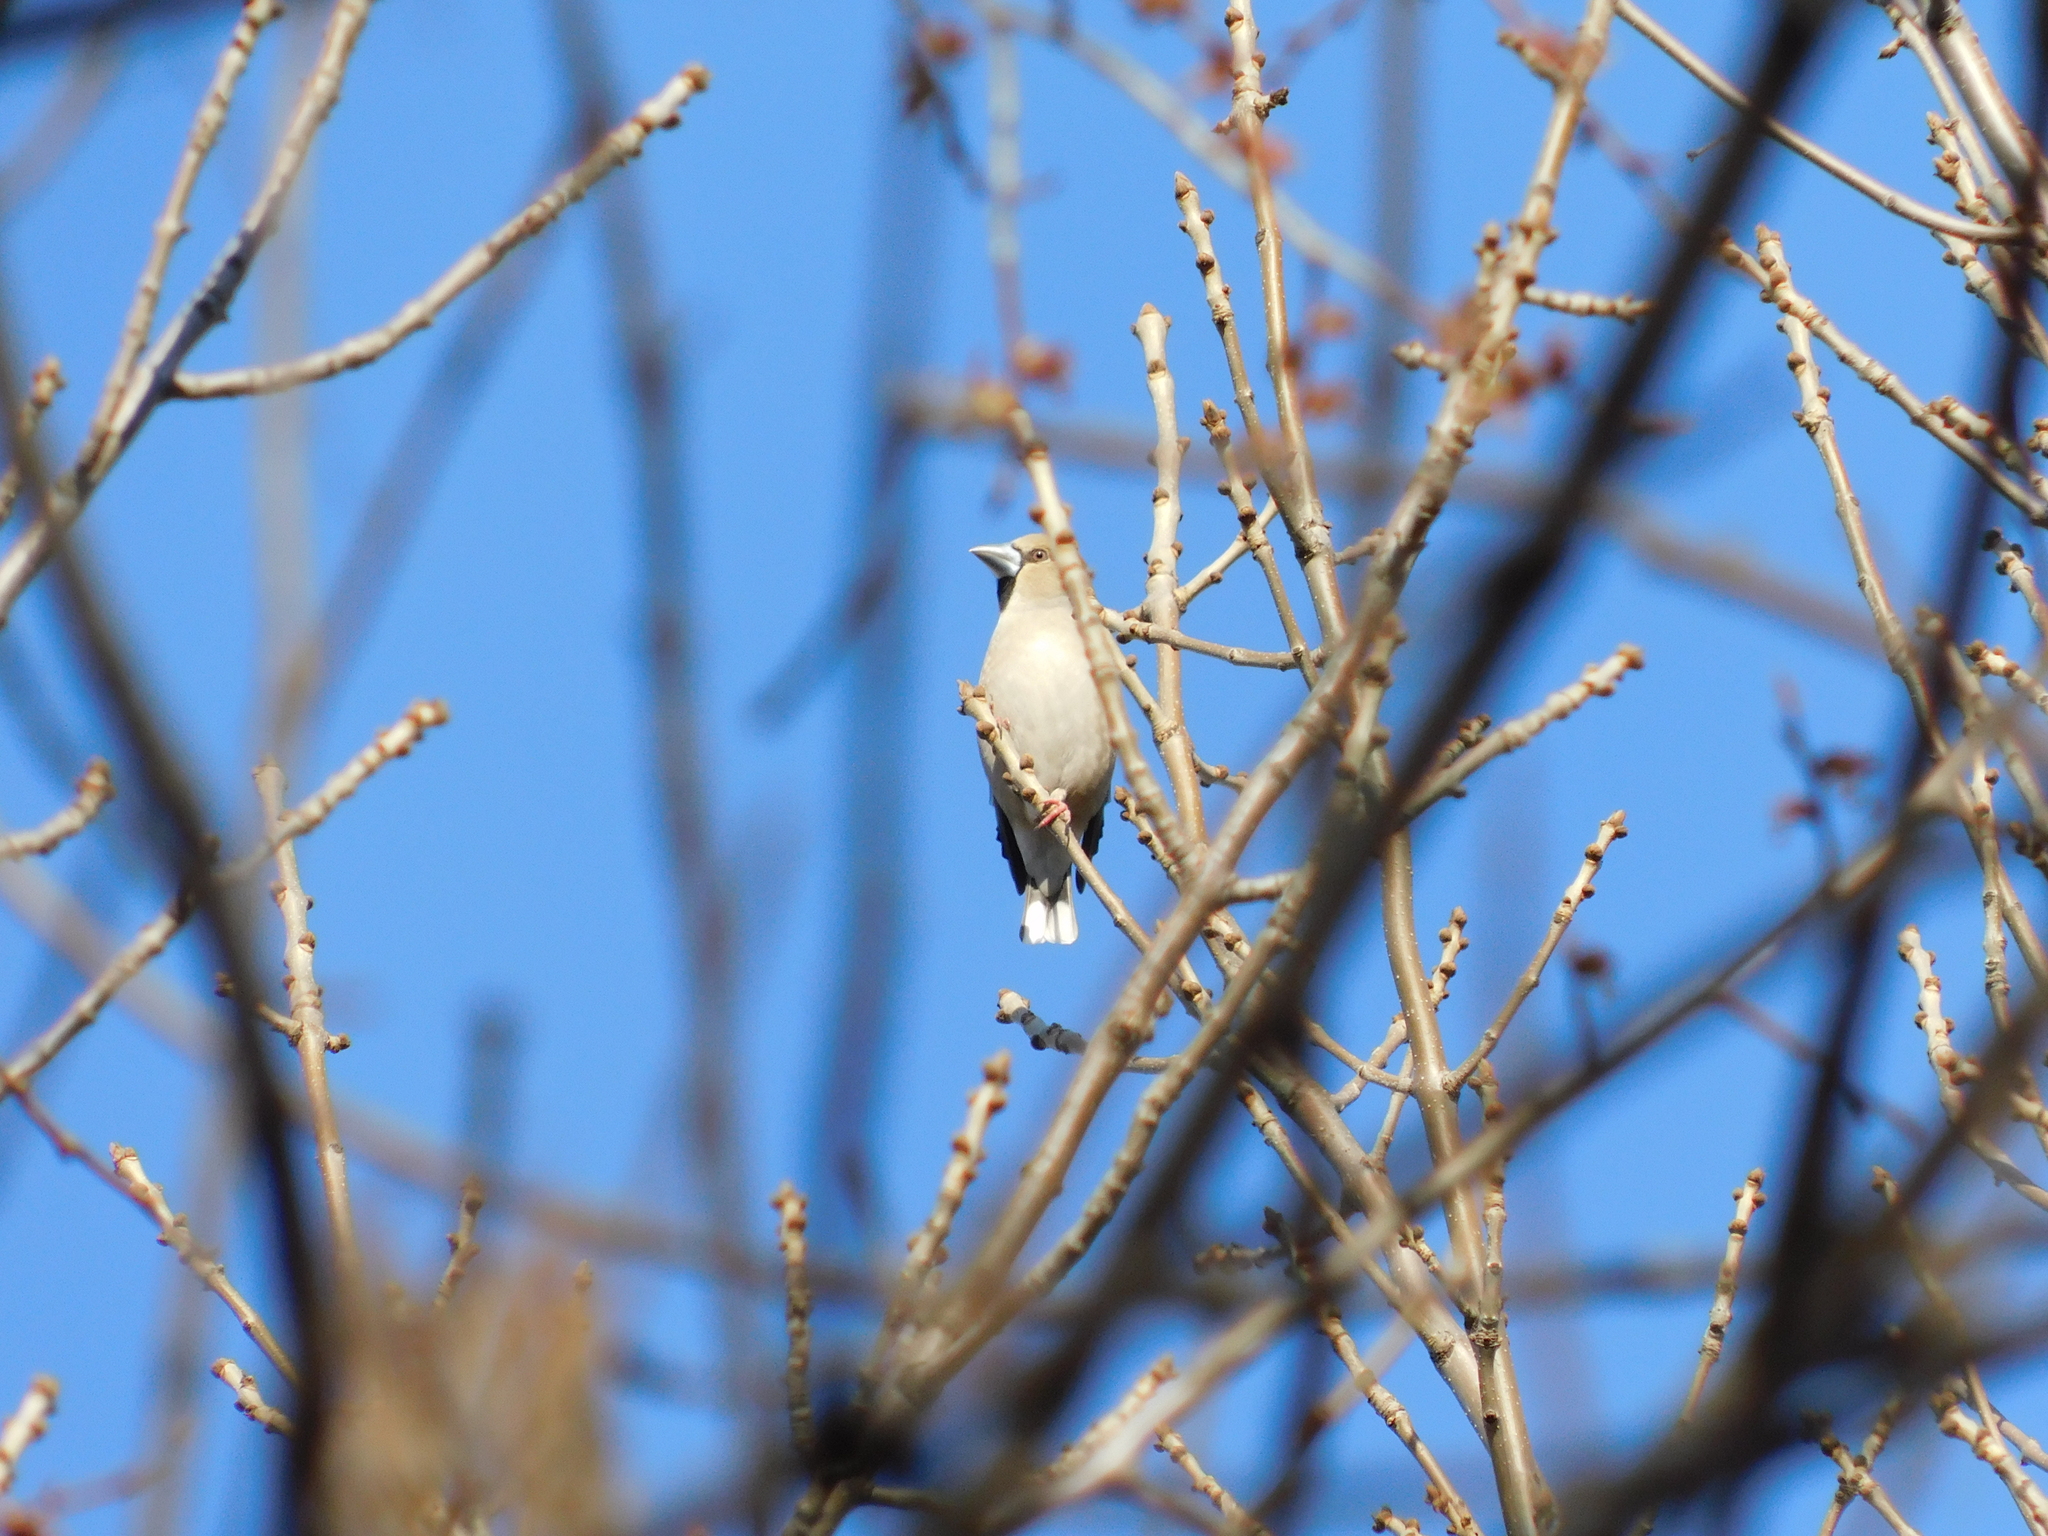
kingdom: Animalia
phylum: Chordata
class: Aves
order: Passeriformes
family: Fringillidae
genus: Coccothraustes
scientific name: Coccothraustes coccothraustes
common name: Hawfinch
